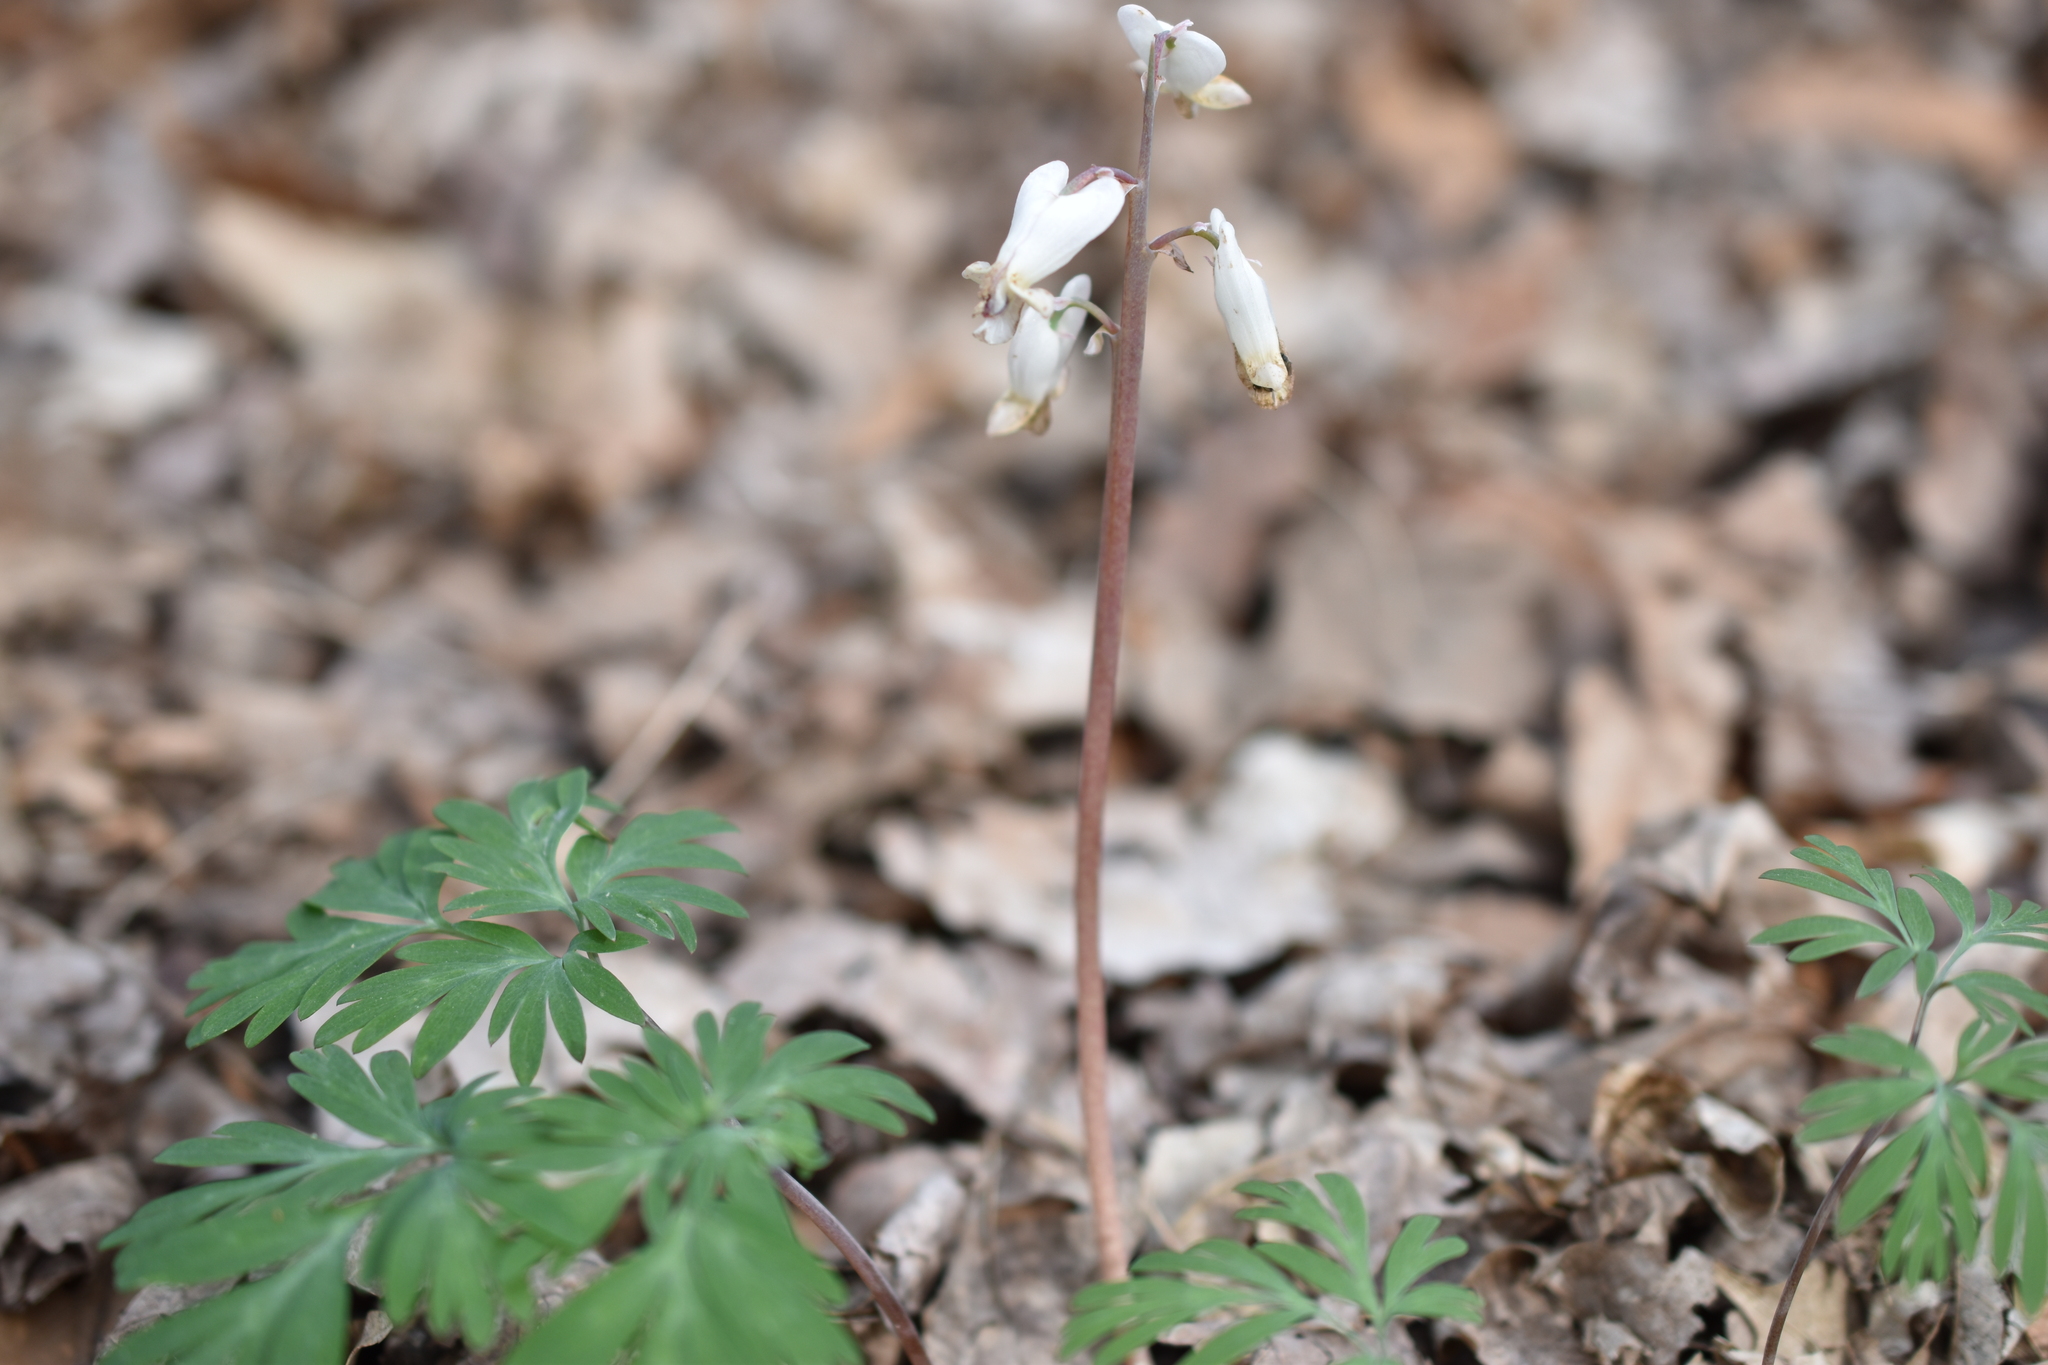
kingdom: Plantae
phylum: Tracheophyta
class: Magnoliopsida
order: Ranunculales
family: Papaveraceae
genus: Dicentra
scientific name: Dicentra canadensis
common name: Squirrel-corn
